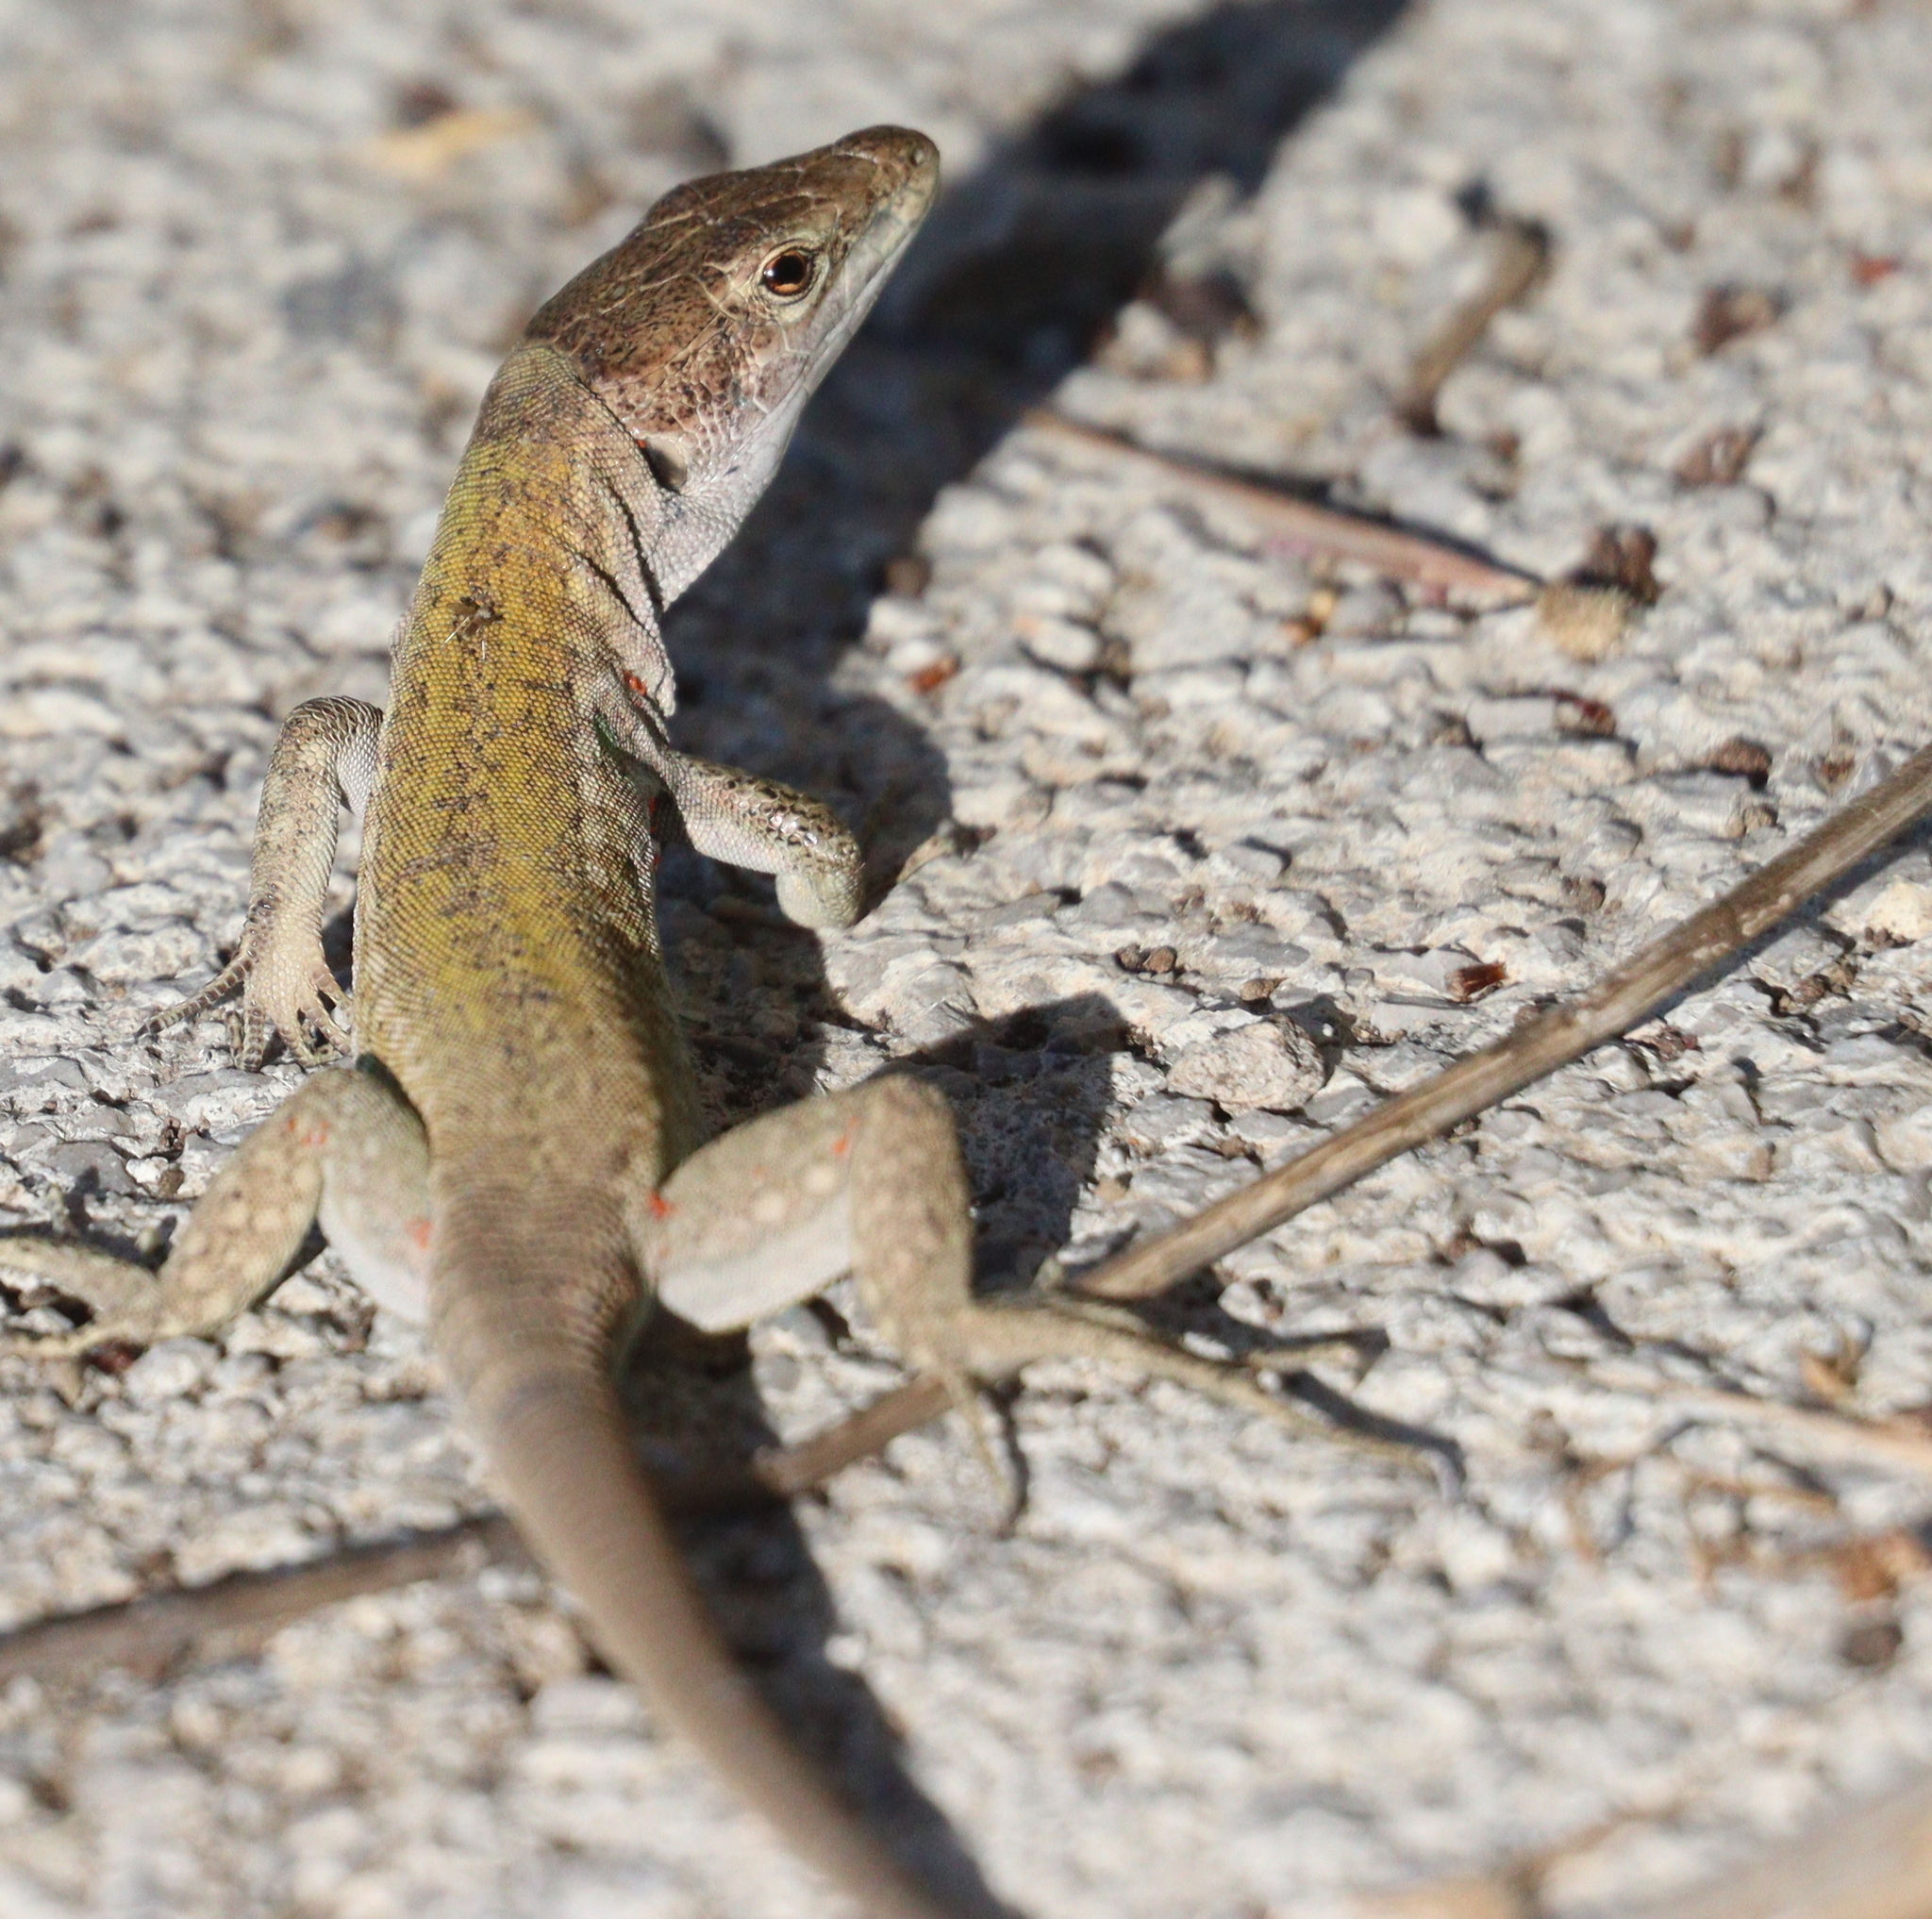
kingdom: Animalia
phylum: Chordata
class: Squamata
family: Lacertidae
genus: Podarcis
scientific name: Podarcis siculus
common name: Italian wall lizard
